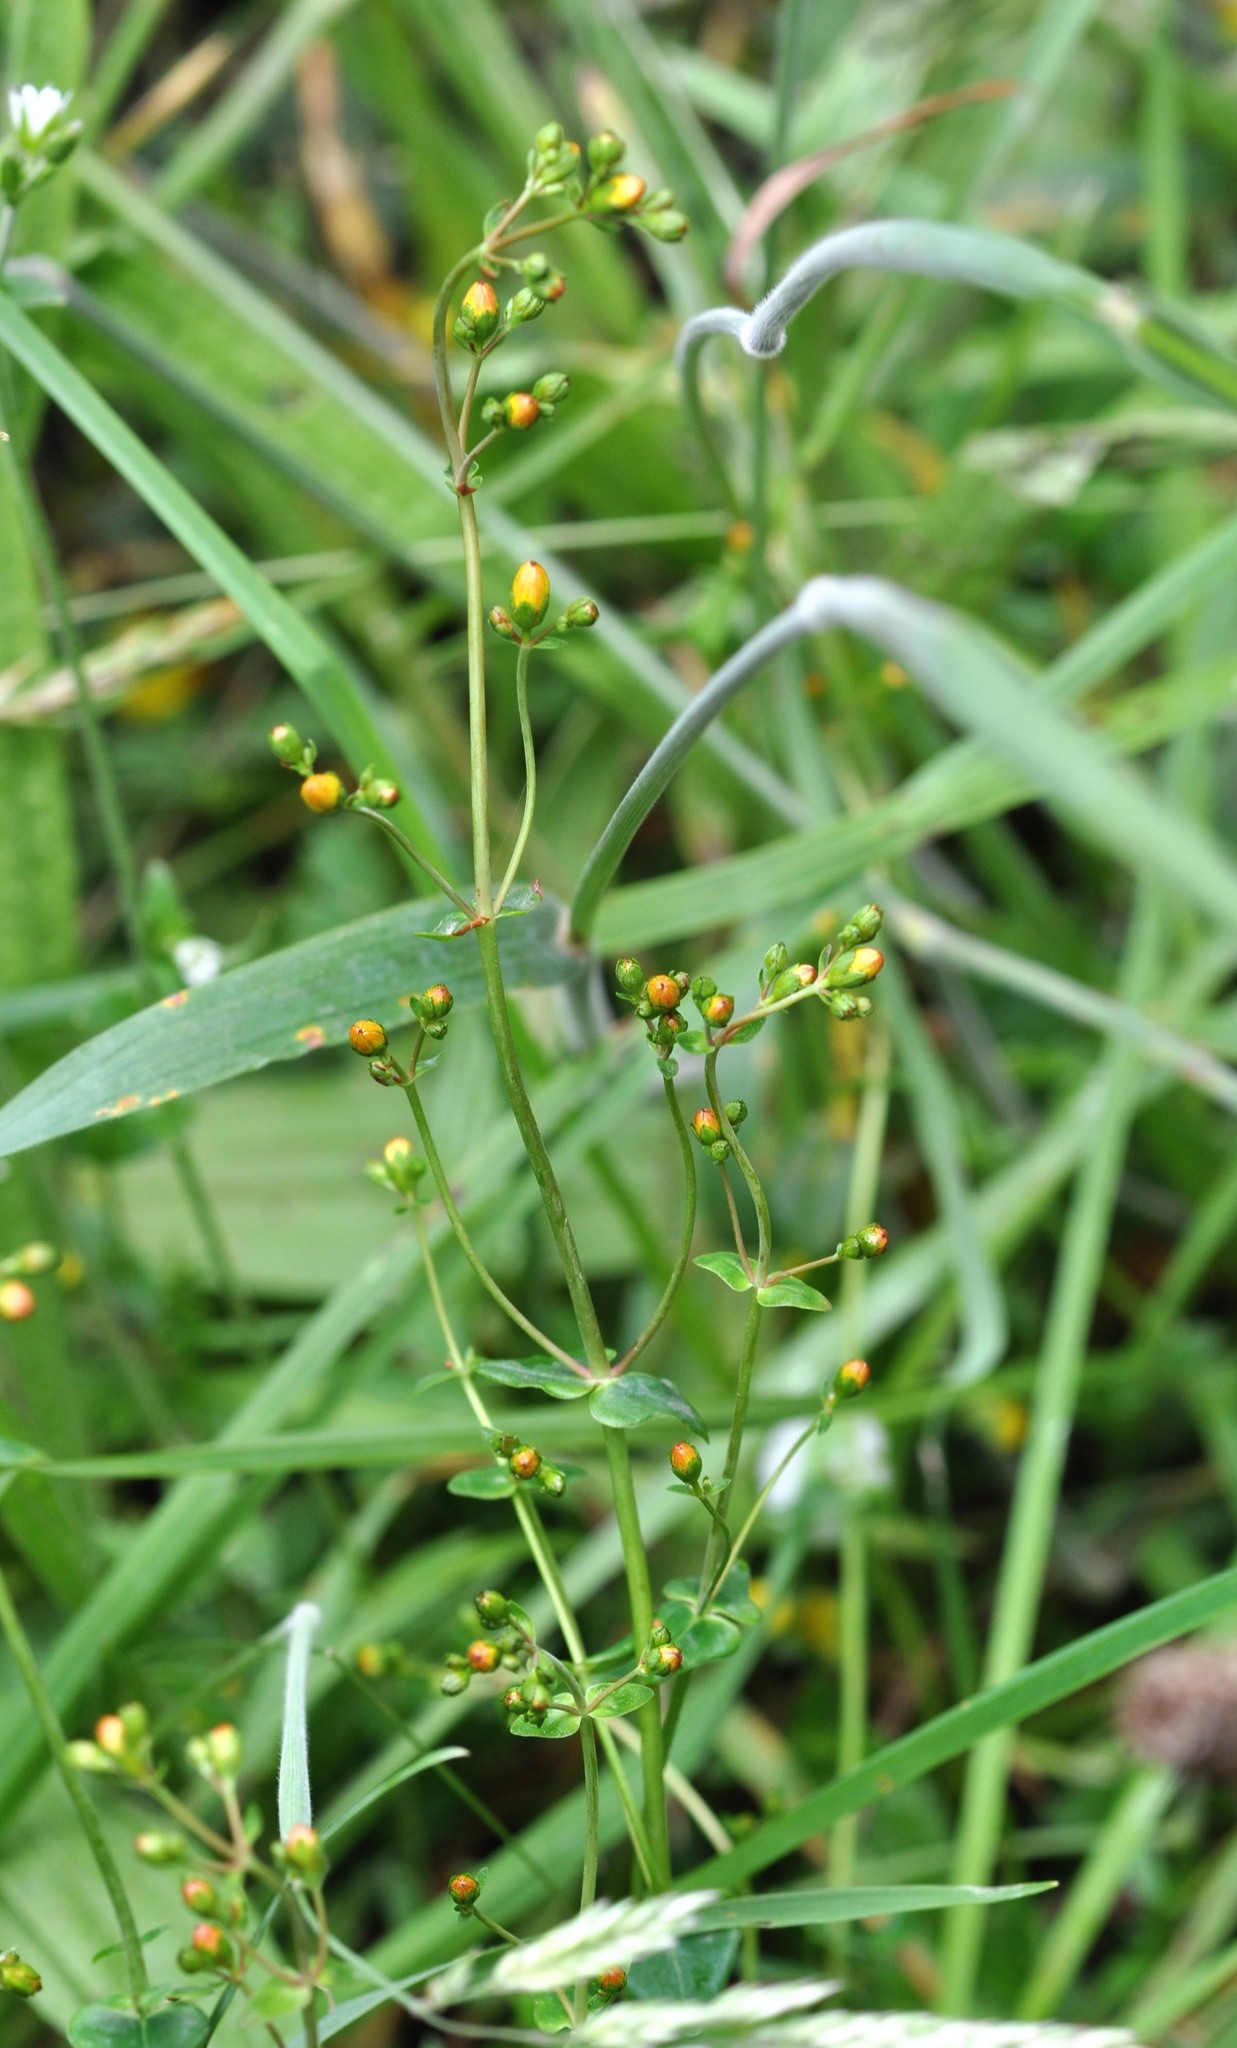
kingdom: Plantae
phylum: Tracheophyta
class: Magnoliopsida
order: Malpighiales
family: Hypericaceae
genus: Hypericum
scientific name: Hypericum pulchrum
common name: Slender st. john's-wort
